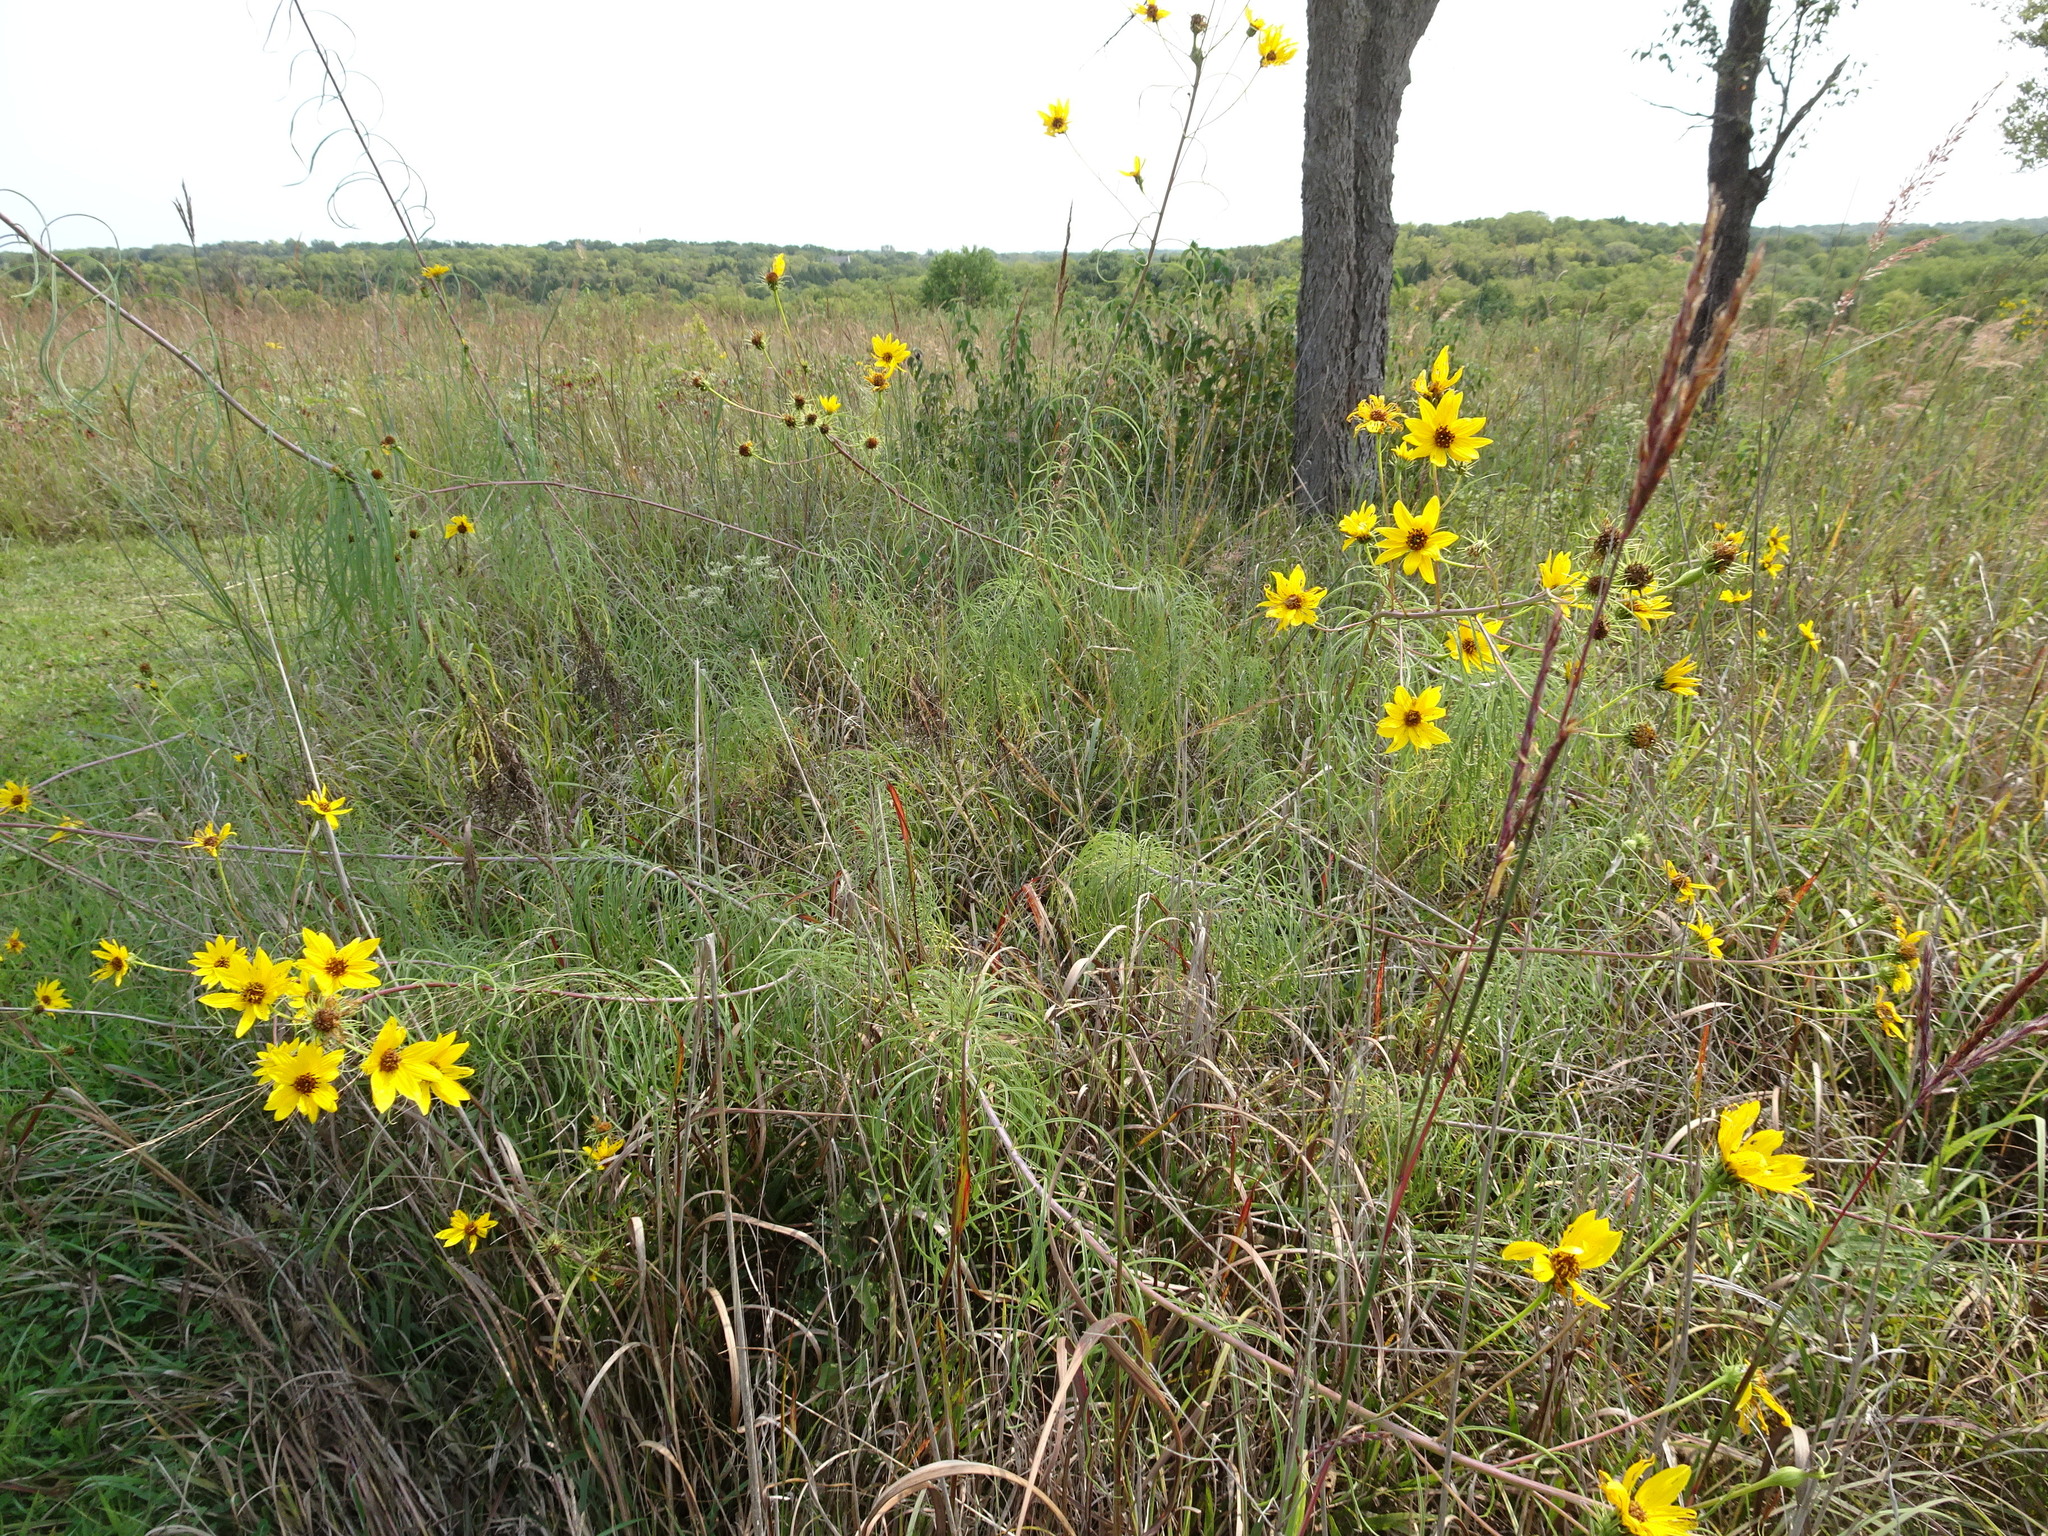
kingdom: Plantae
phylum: Tracheophyta
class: Magnoliopsida
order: Asterales
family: Asteraceae
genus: Helianthus
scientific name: Helianthus salicifolius
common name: Willowleaf sunflower
